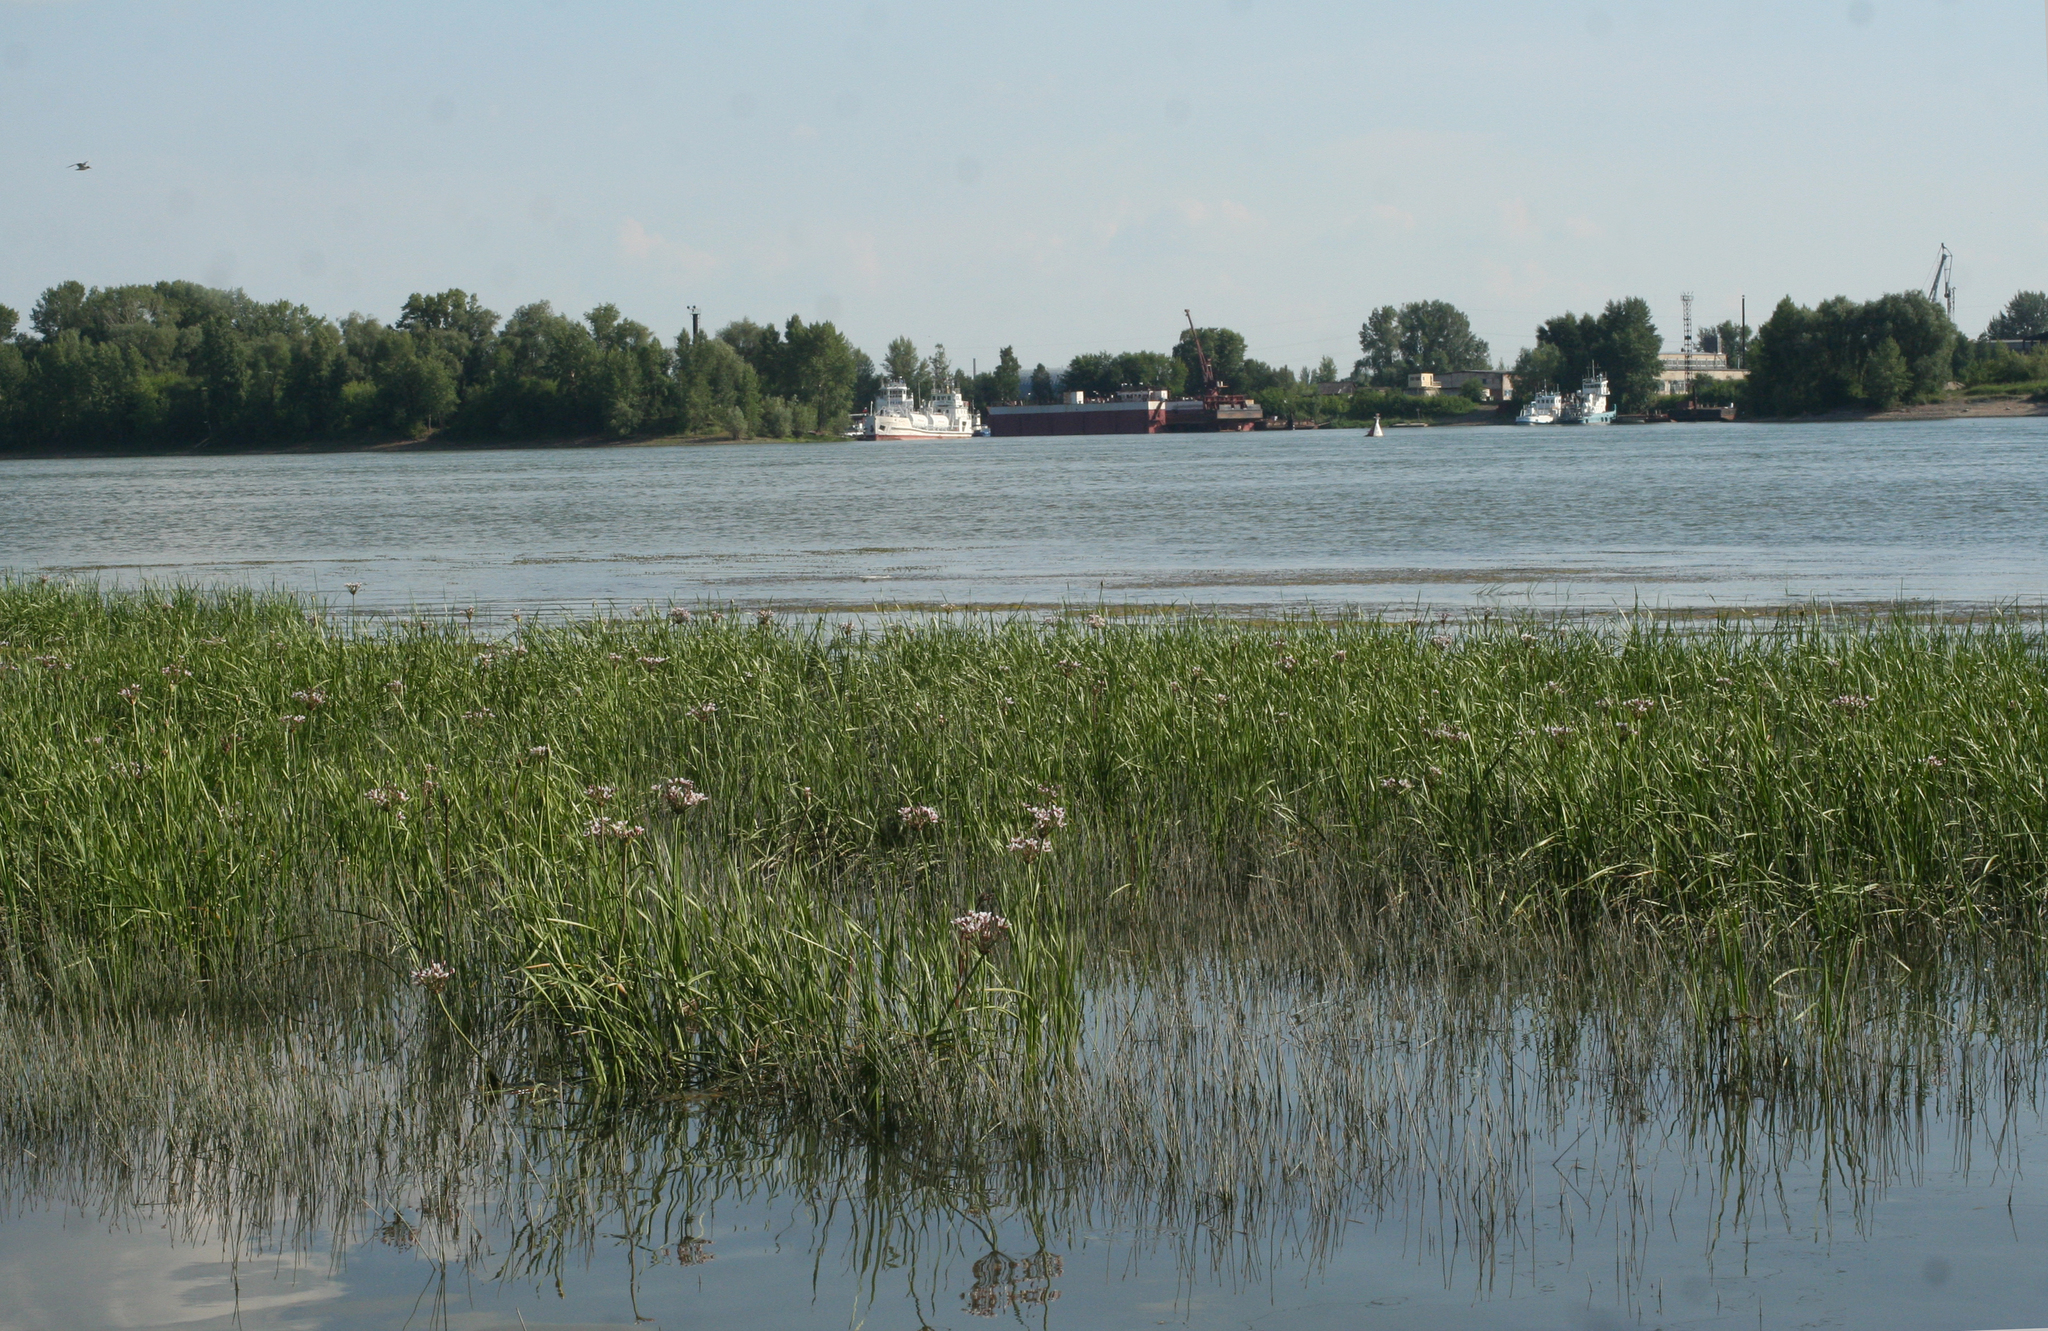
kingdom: Plantae
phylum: Tracheophyta
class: Liliopsida
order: Alismatales
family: Butomaceae
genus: Butomus
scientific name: Butomus umbellatus
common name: Flowering-rush
